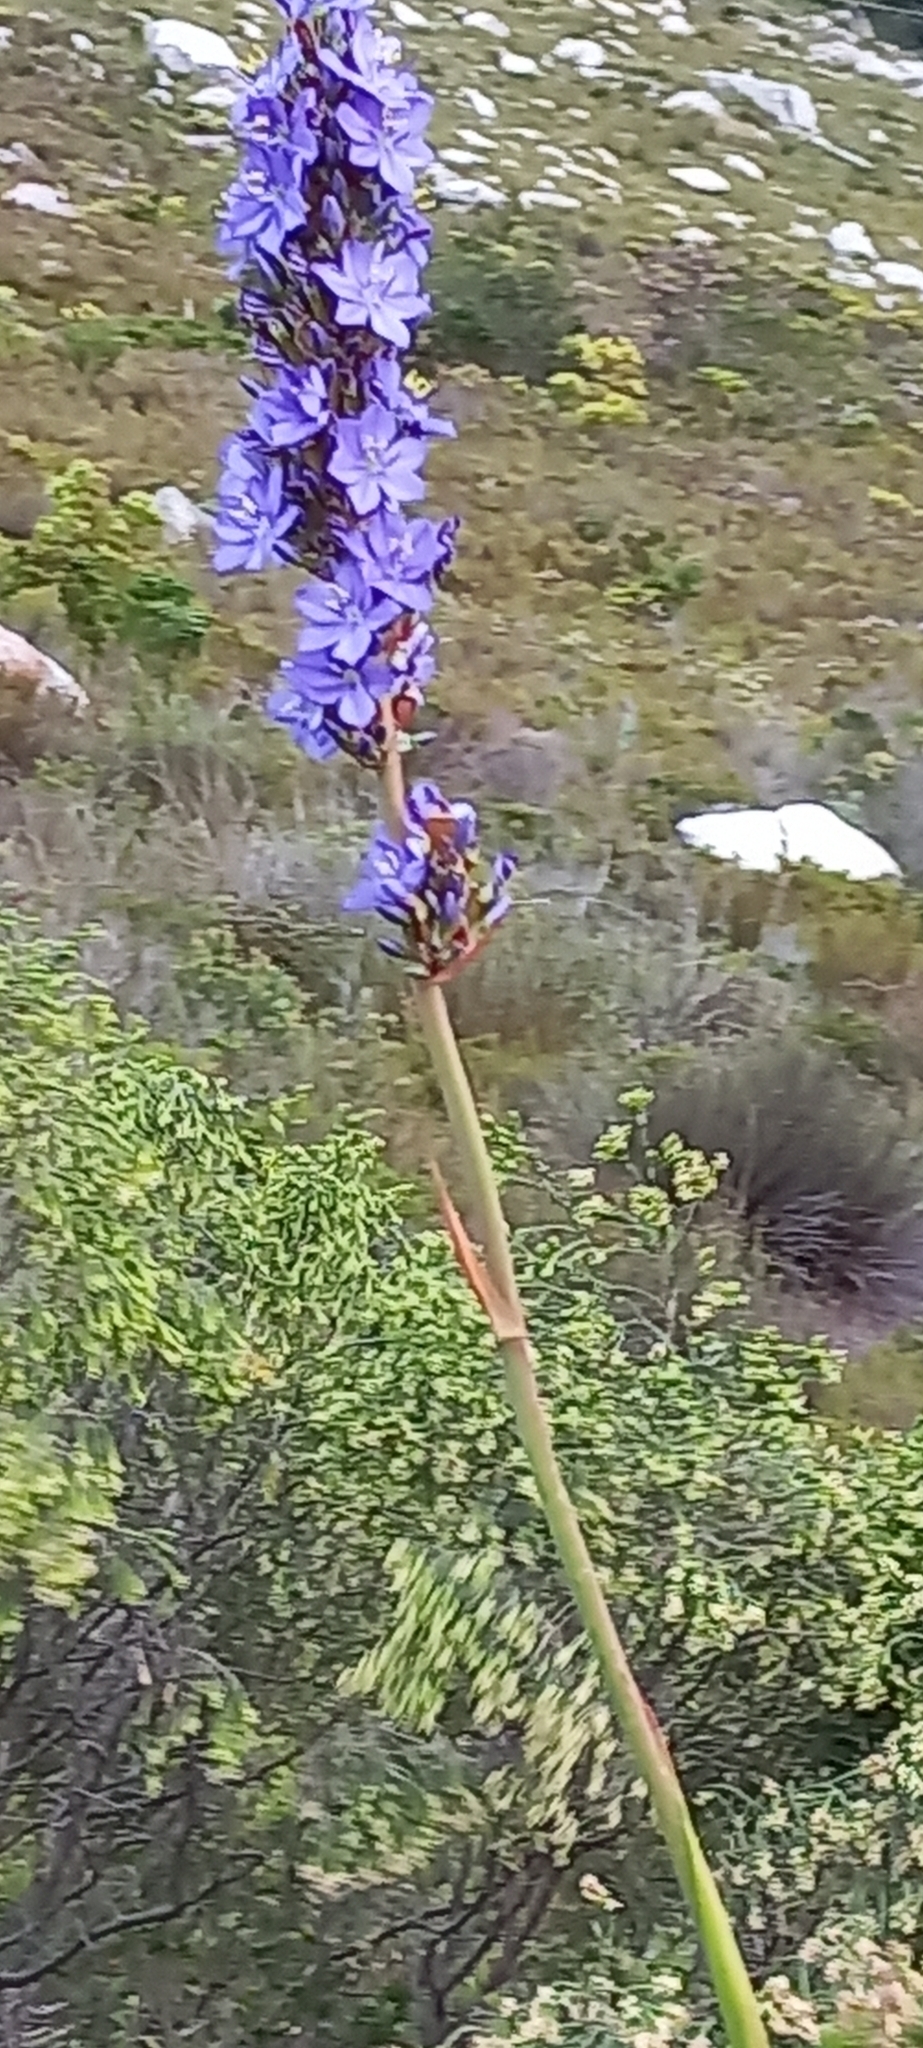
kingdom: Plantae
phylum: Tracheophyta
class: Liliopsida
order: Asparagales
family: Iridaceae
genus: Aristea
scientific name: Aristea capitata
